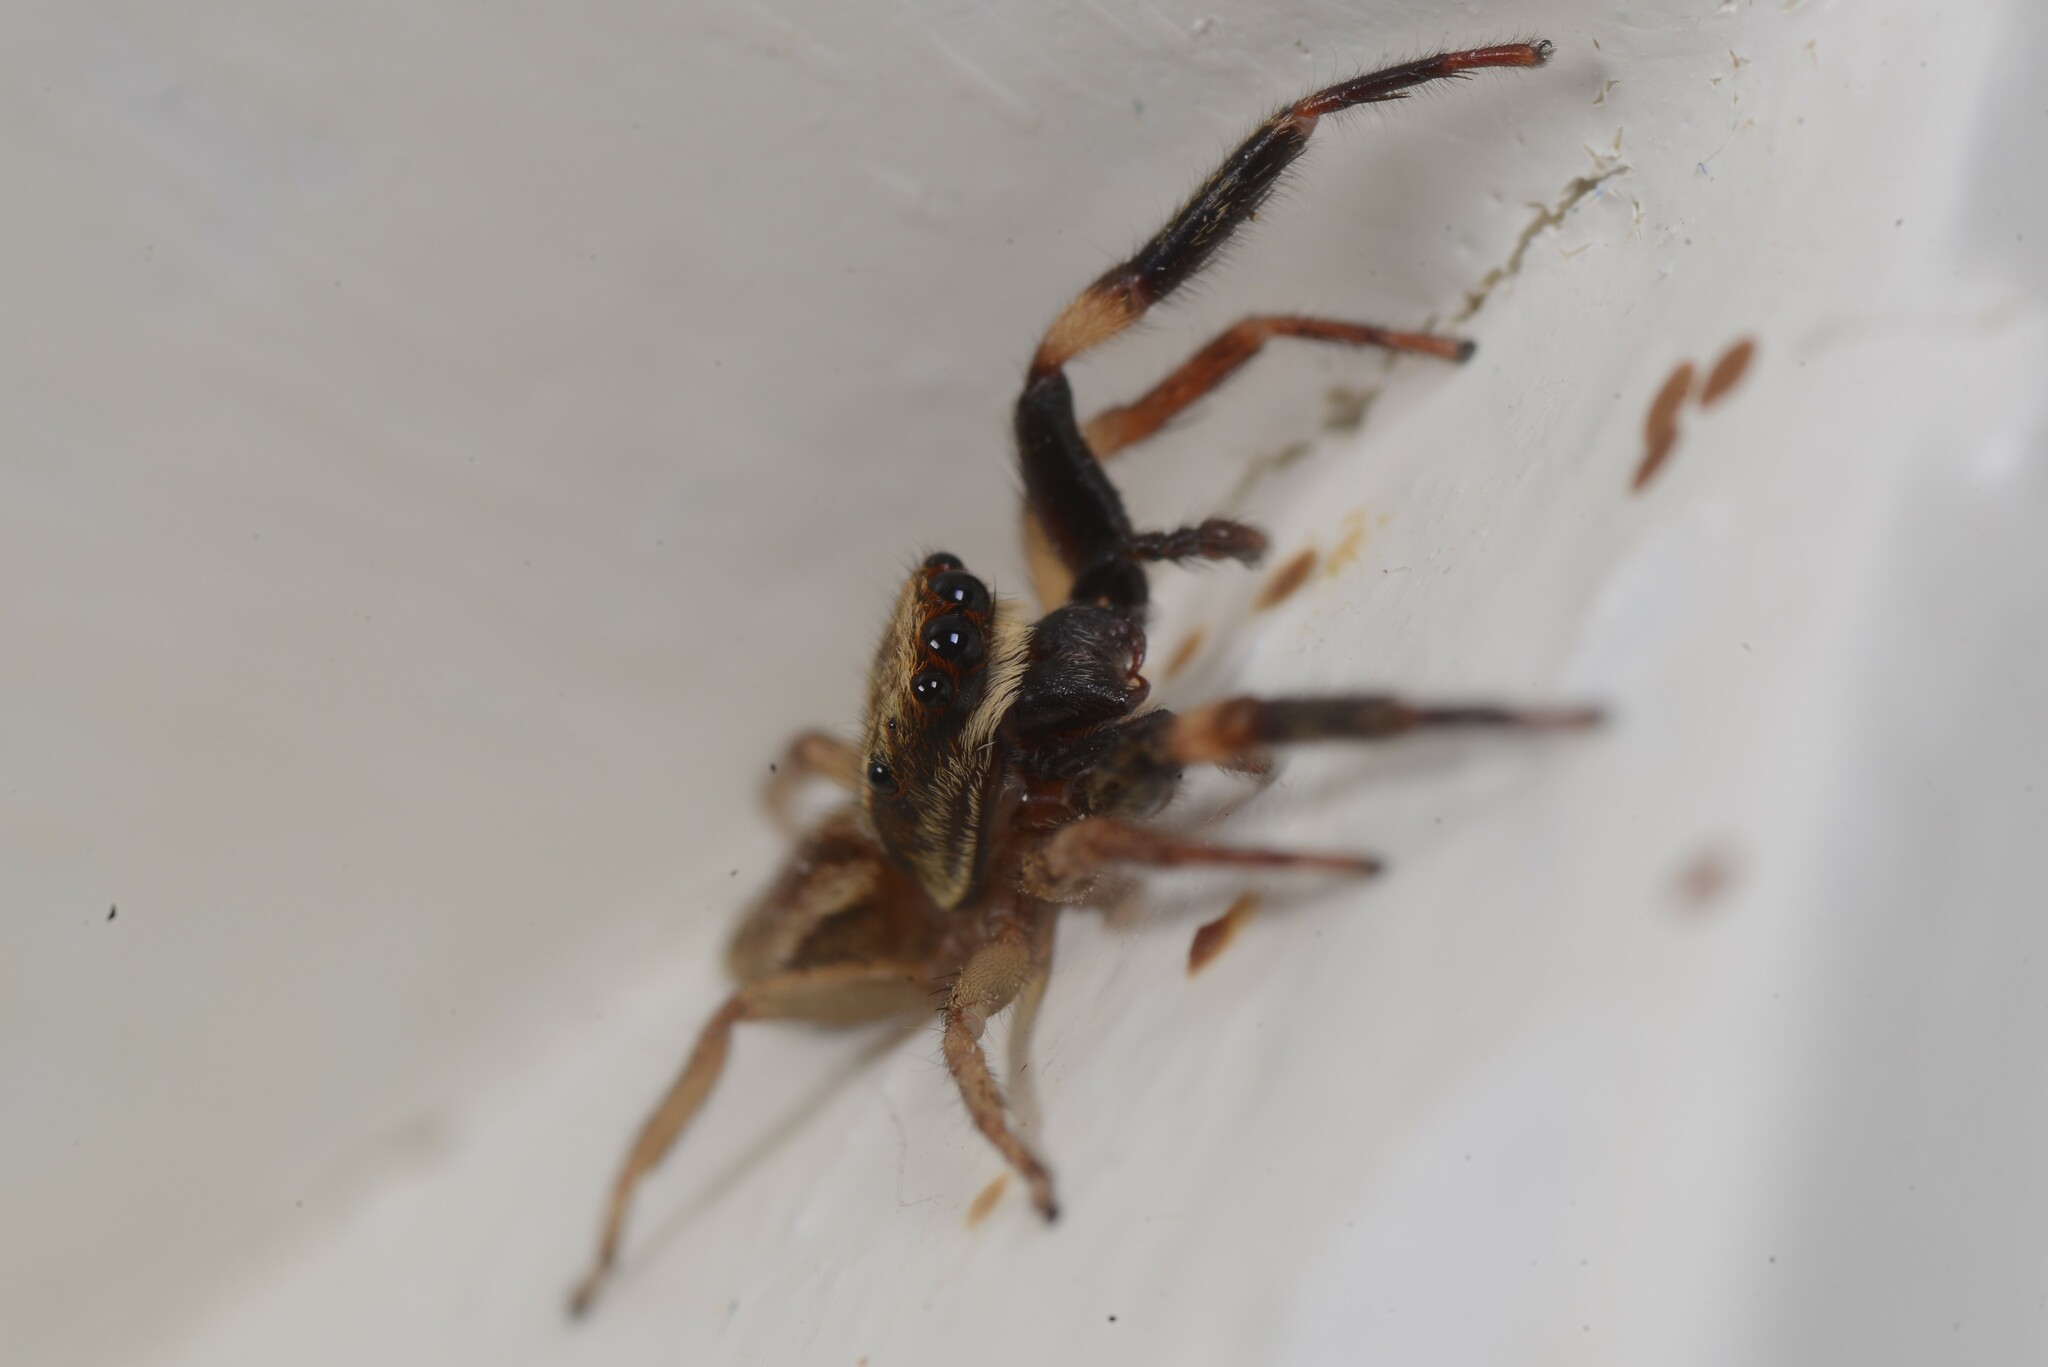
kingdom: Animalia
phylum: Arthropoda
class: Arachnida
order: Araneae
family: Salticidae
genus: Trite
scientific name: Trite auricoma
